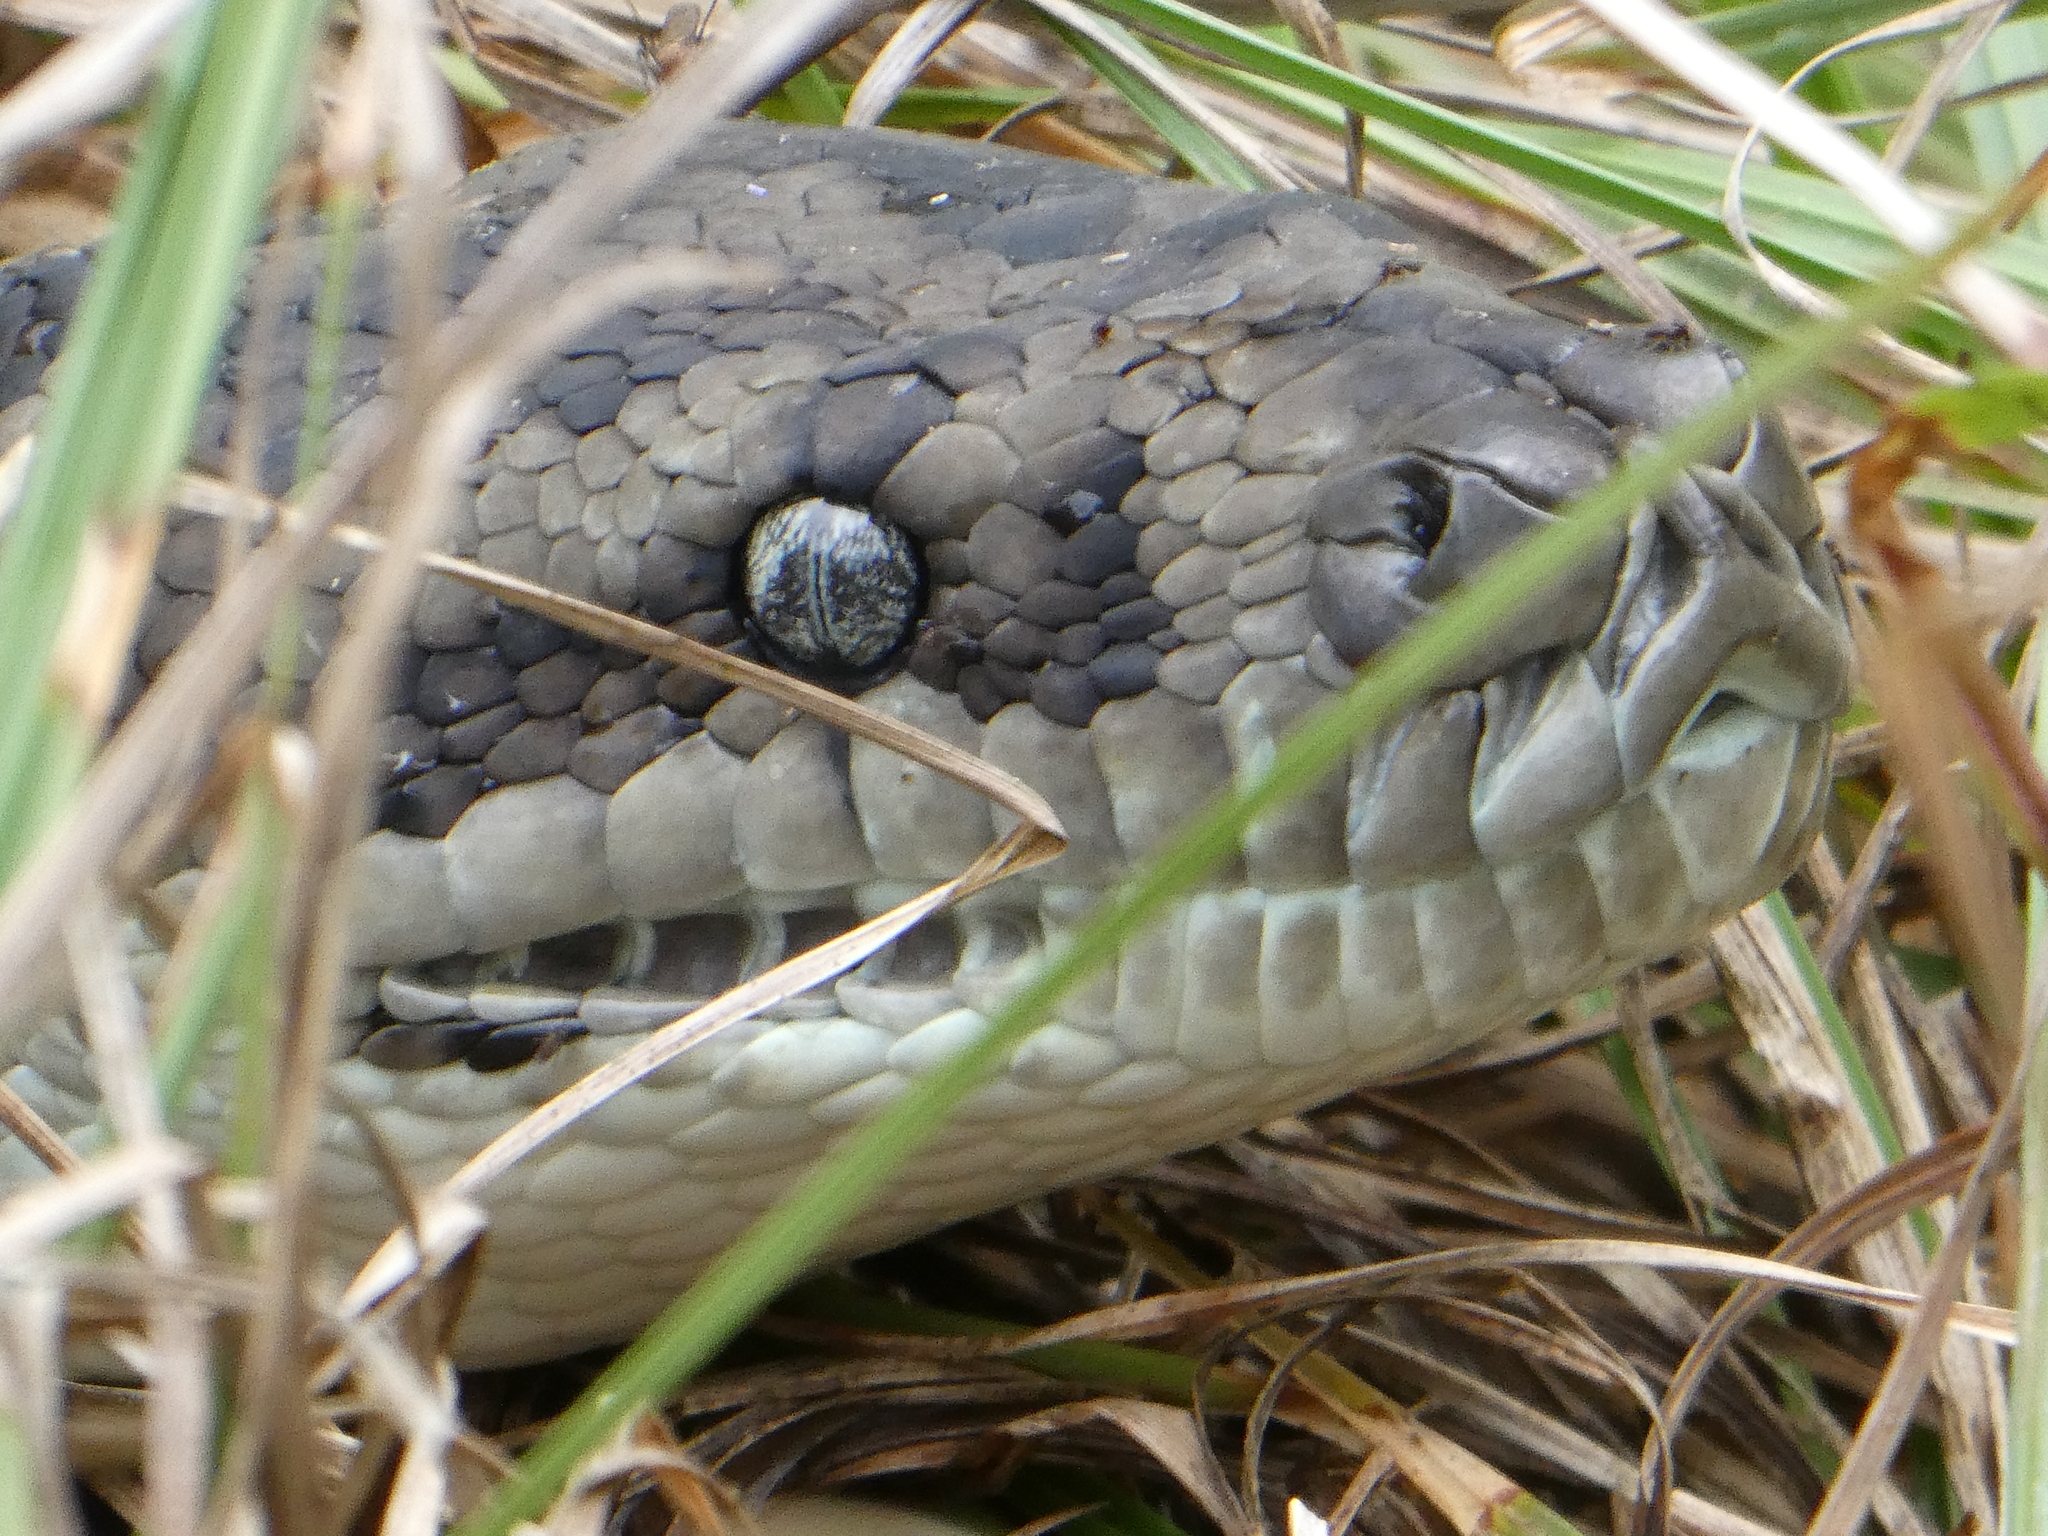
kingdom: Animalia
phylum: Chordata
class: Squamata
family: Pythonidae
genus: Morelia
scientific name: Morelia spilota
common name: Carpet python
